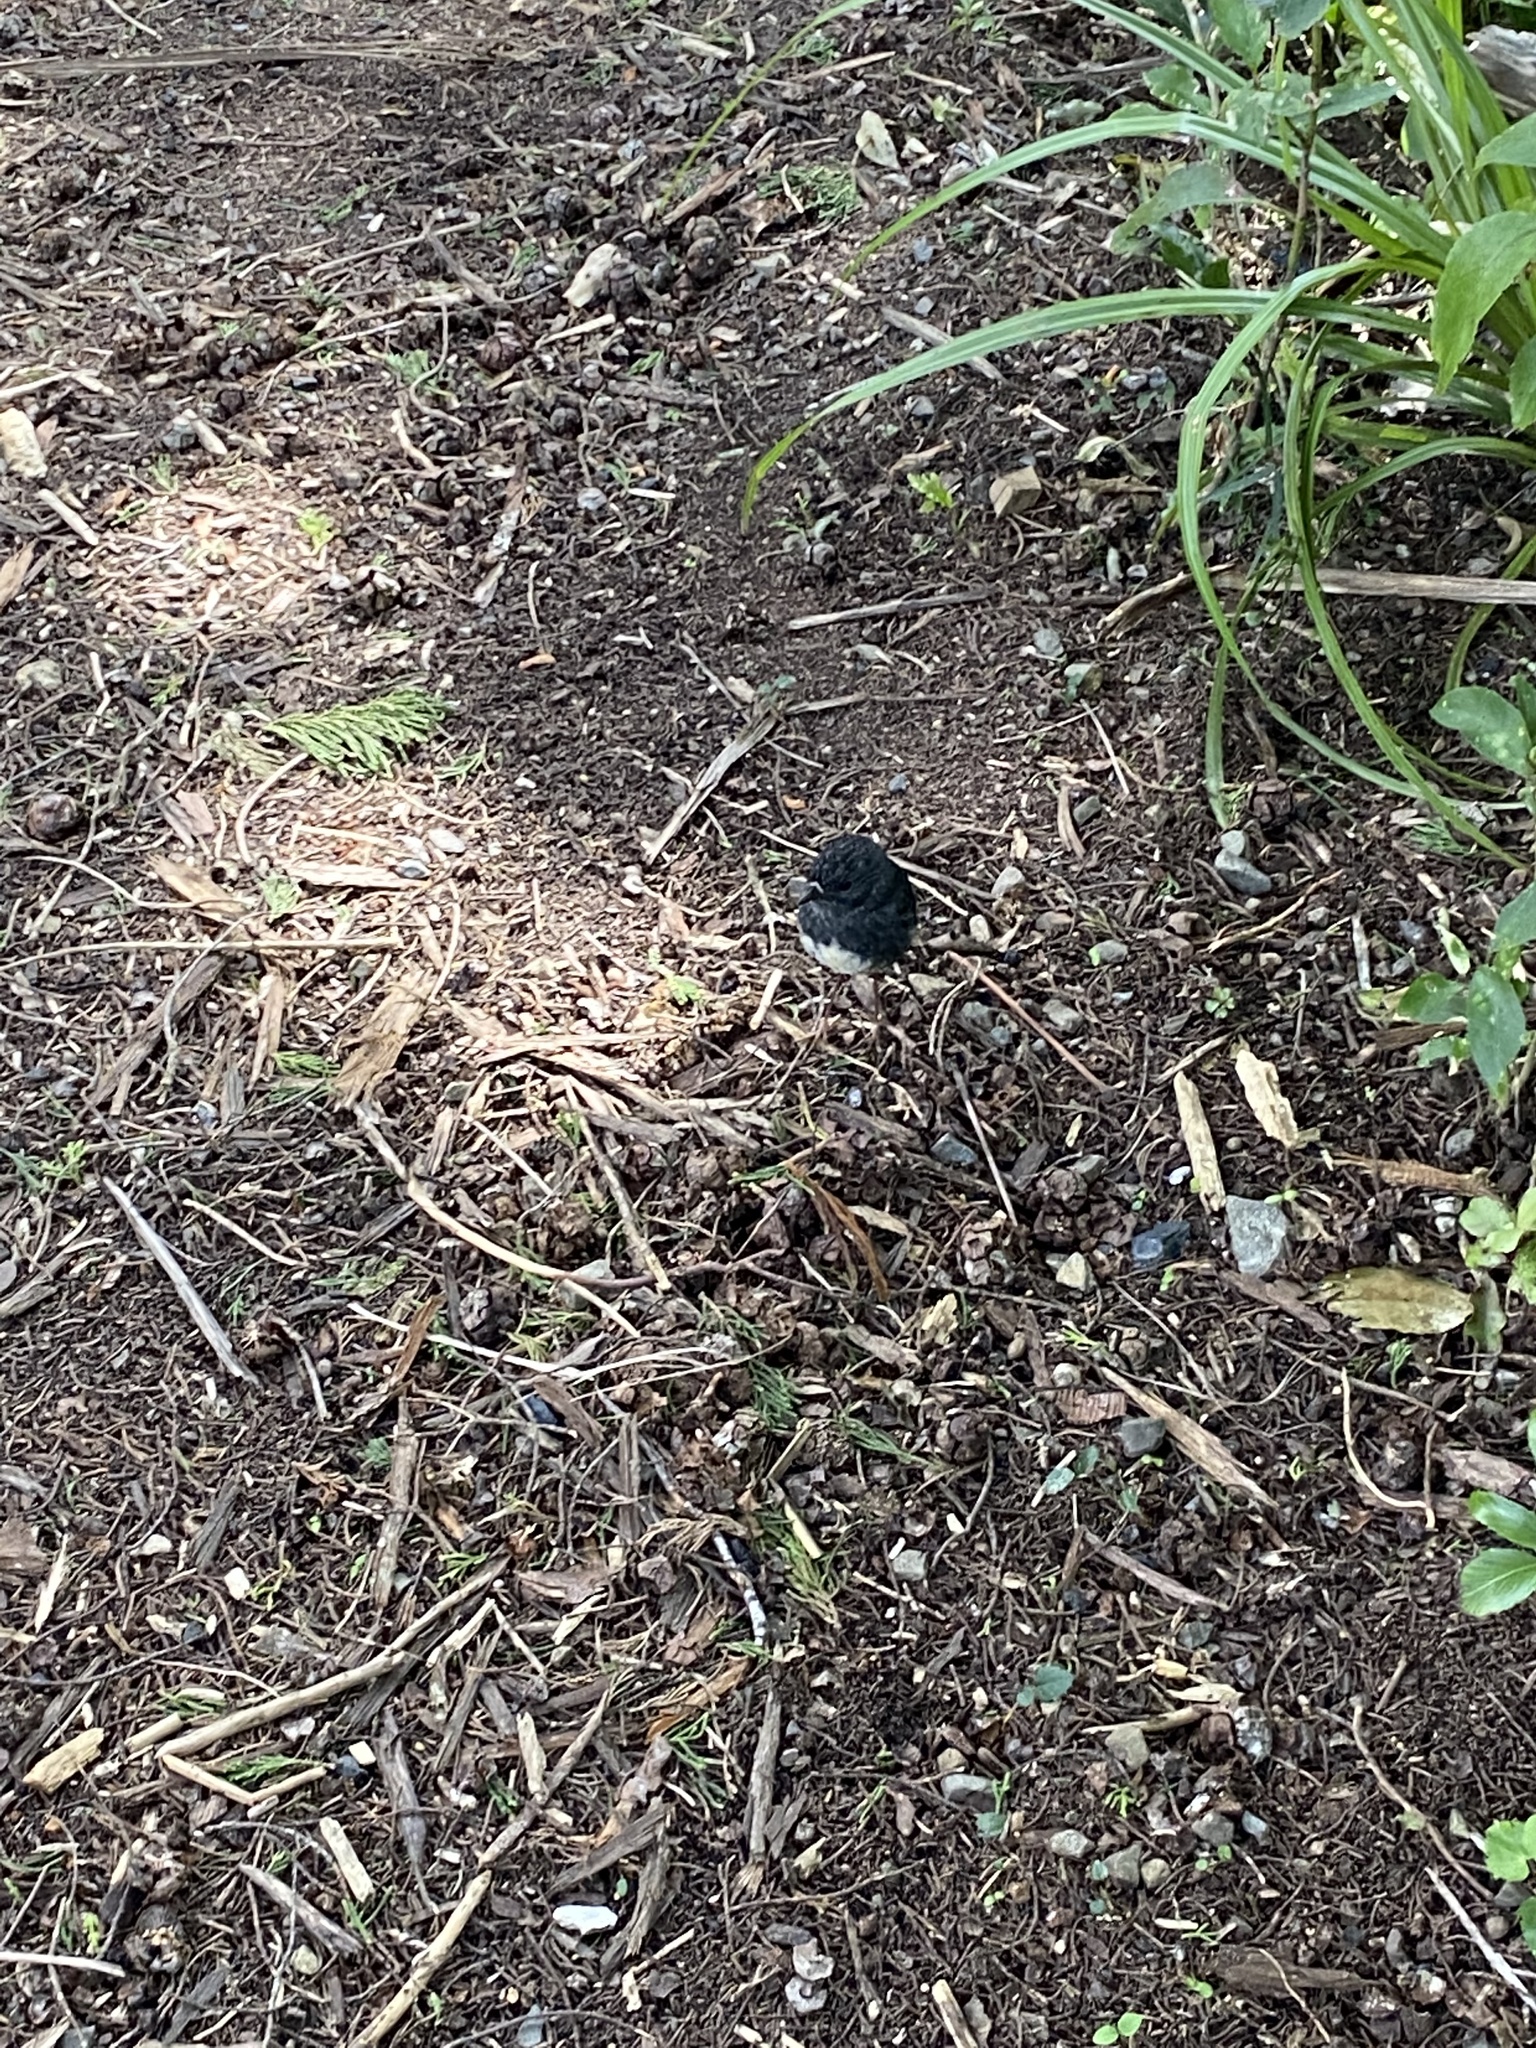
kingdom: Animalia
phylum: Chordata
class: Aves
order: Passeriformes
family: Petroicidae
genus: Petroica
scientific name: Petroica australis
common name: New zealand robin
